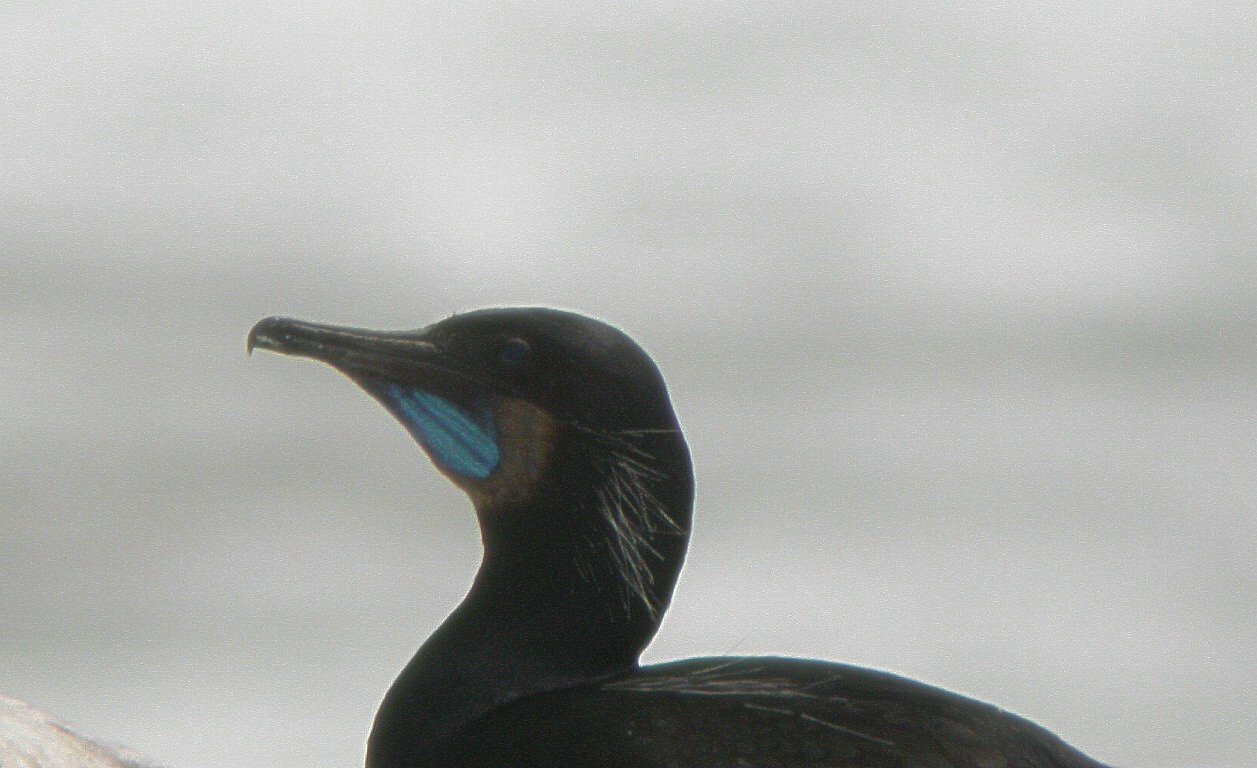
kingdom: Animalia
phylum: Chordata
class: Aves
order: Suliformes
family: Phalacrocoracidae
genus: Urile
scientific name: Urile penicillatus
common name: Brandt's cormorant
